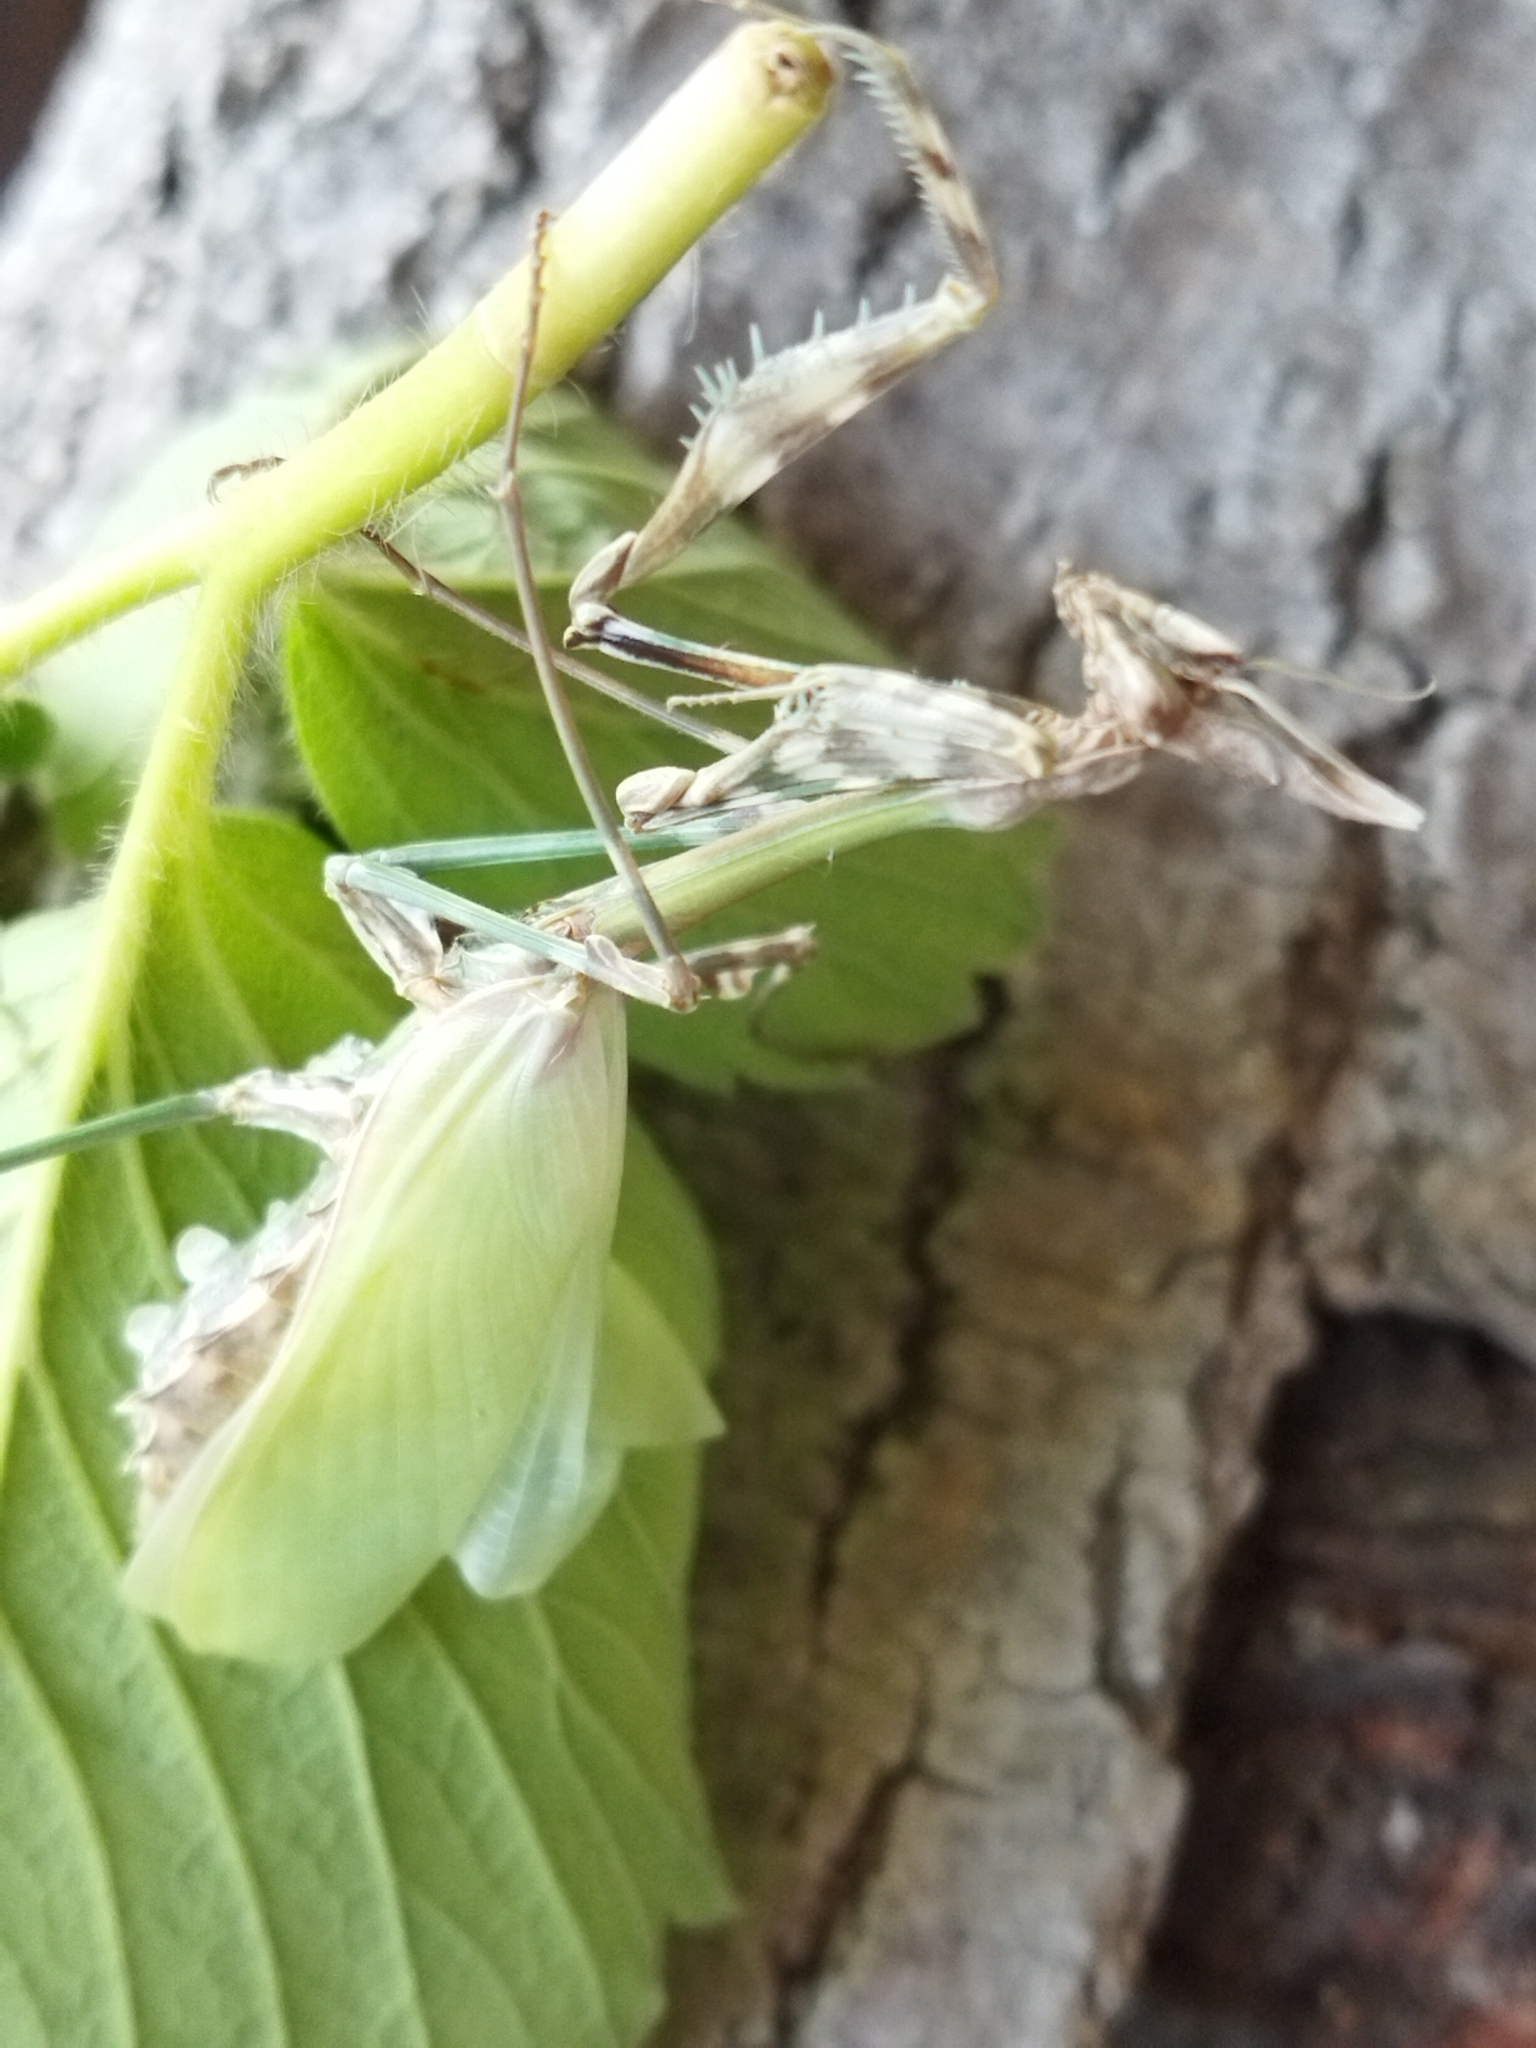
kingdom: Animalia
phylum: Arthropoda
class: Insecta
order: Mantodea
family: Empusidae
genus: Empusa
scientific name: Empusa fasciata
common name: Devil's mare
